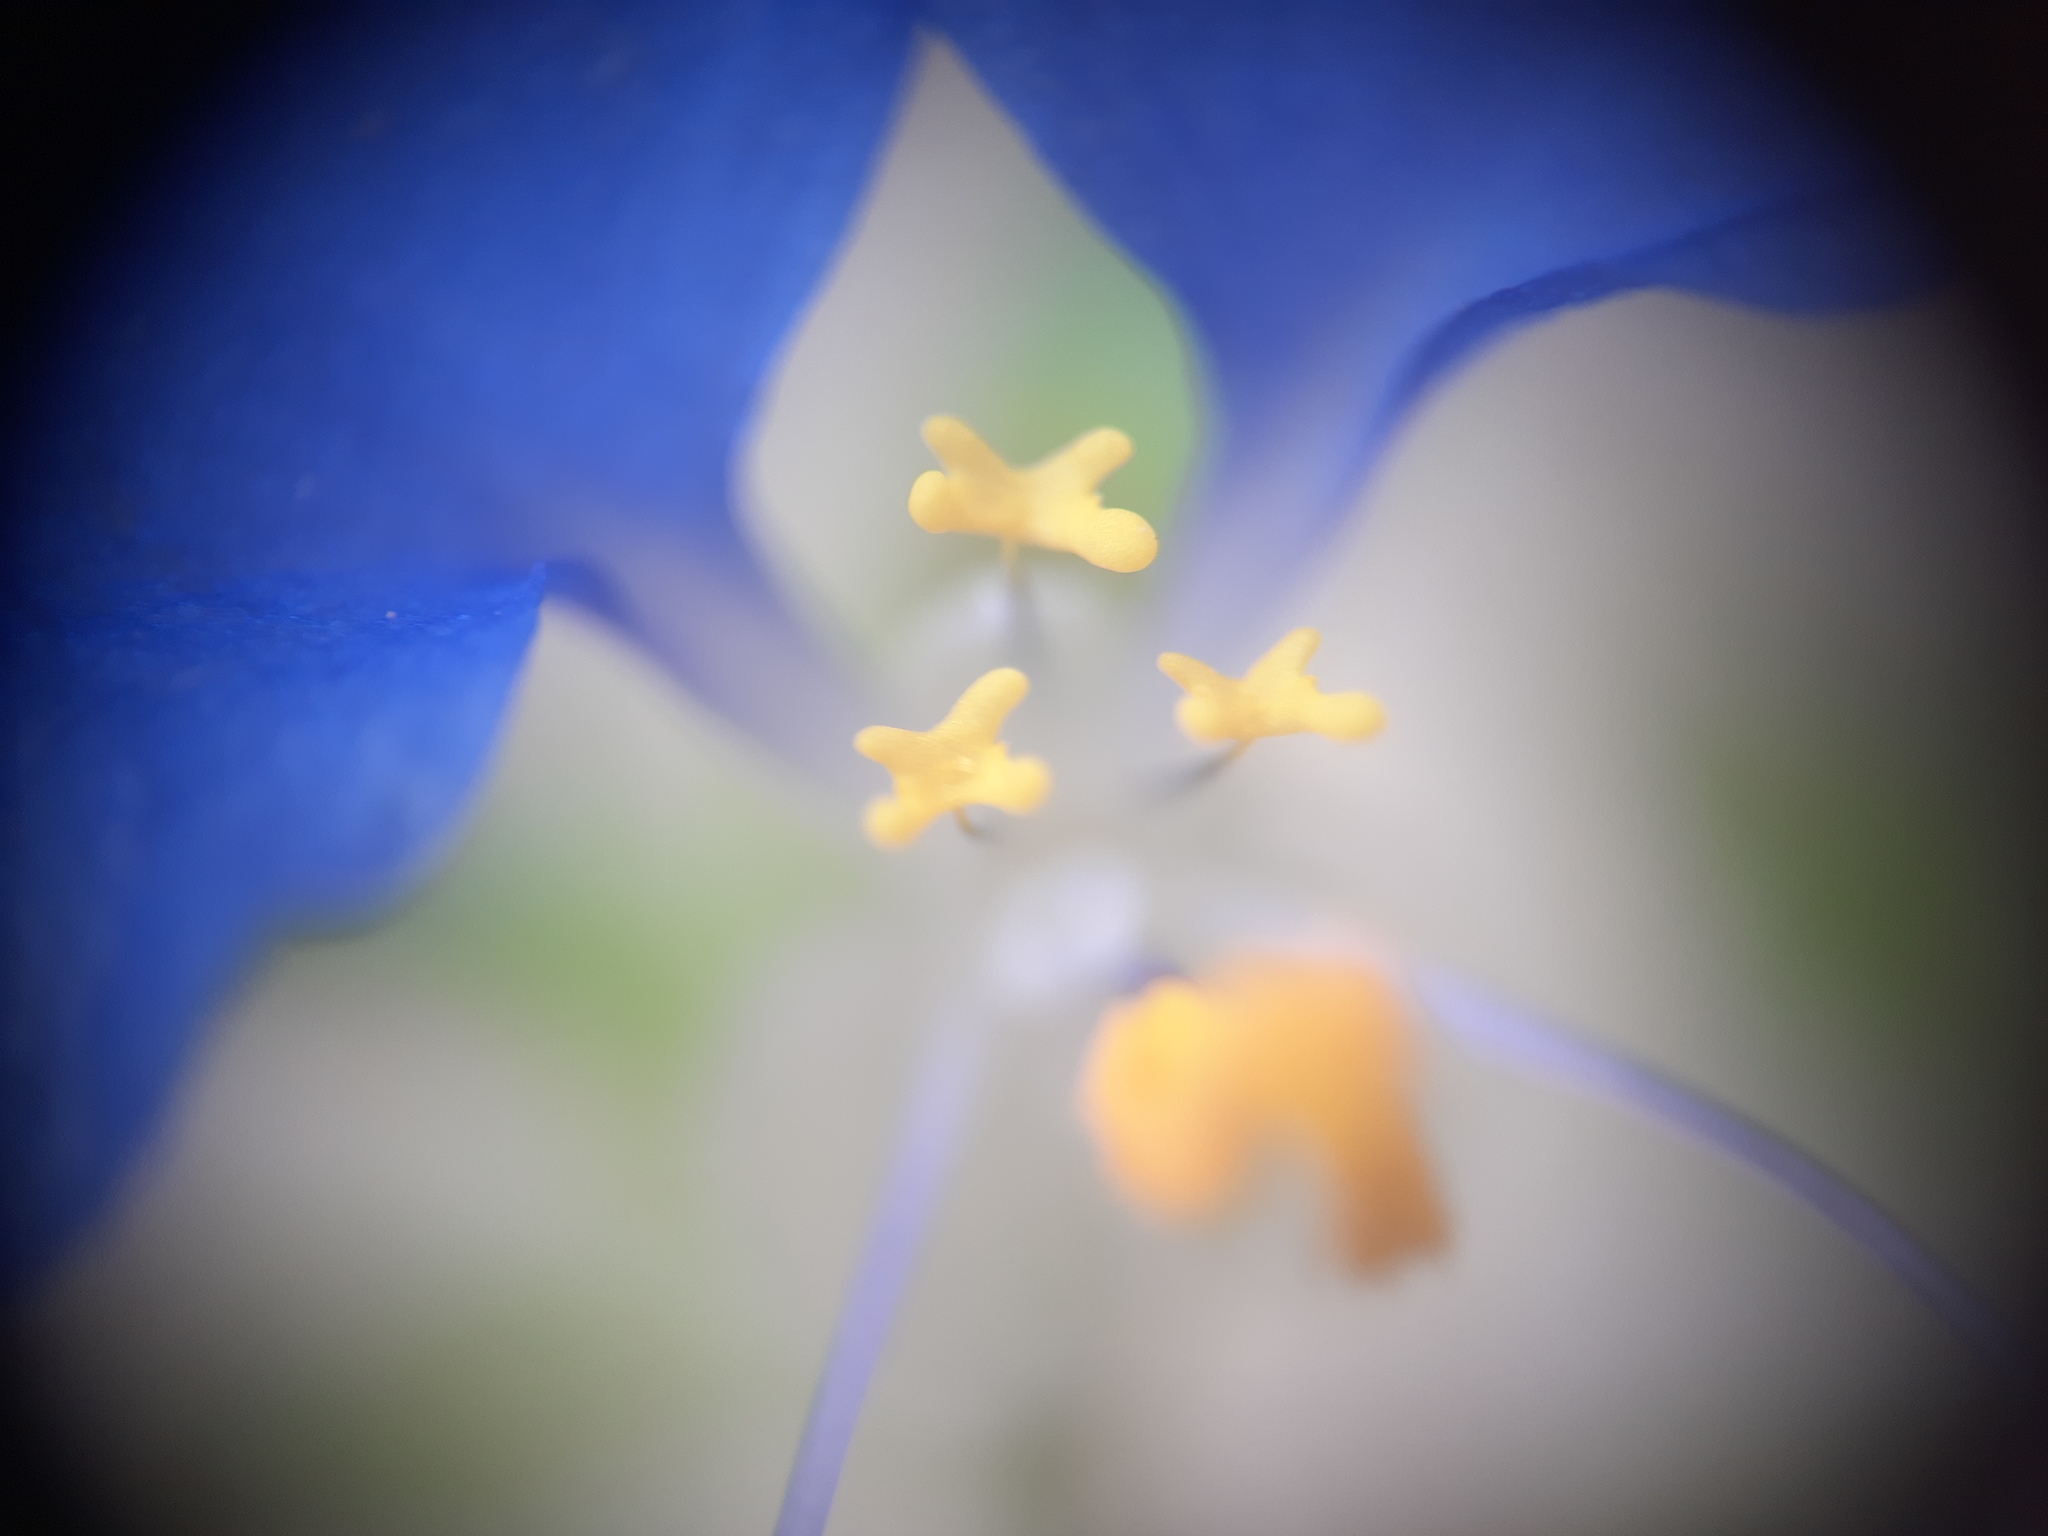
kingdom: Plantae
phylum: Tracheophyta
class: Liliopsida
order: Commelinales
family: Commelinaceae
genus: Commelina
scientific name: Commelina erecta
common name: Blousel blommetjie
